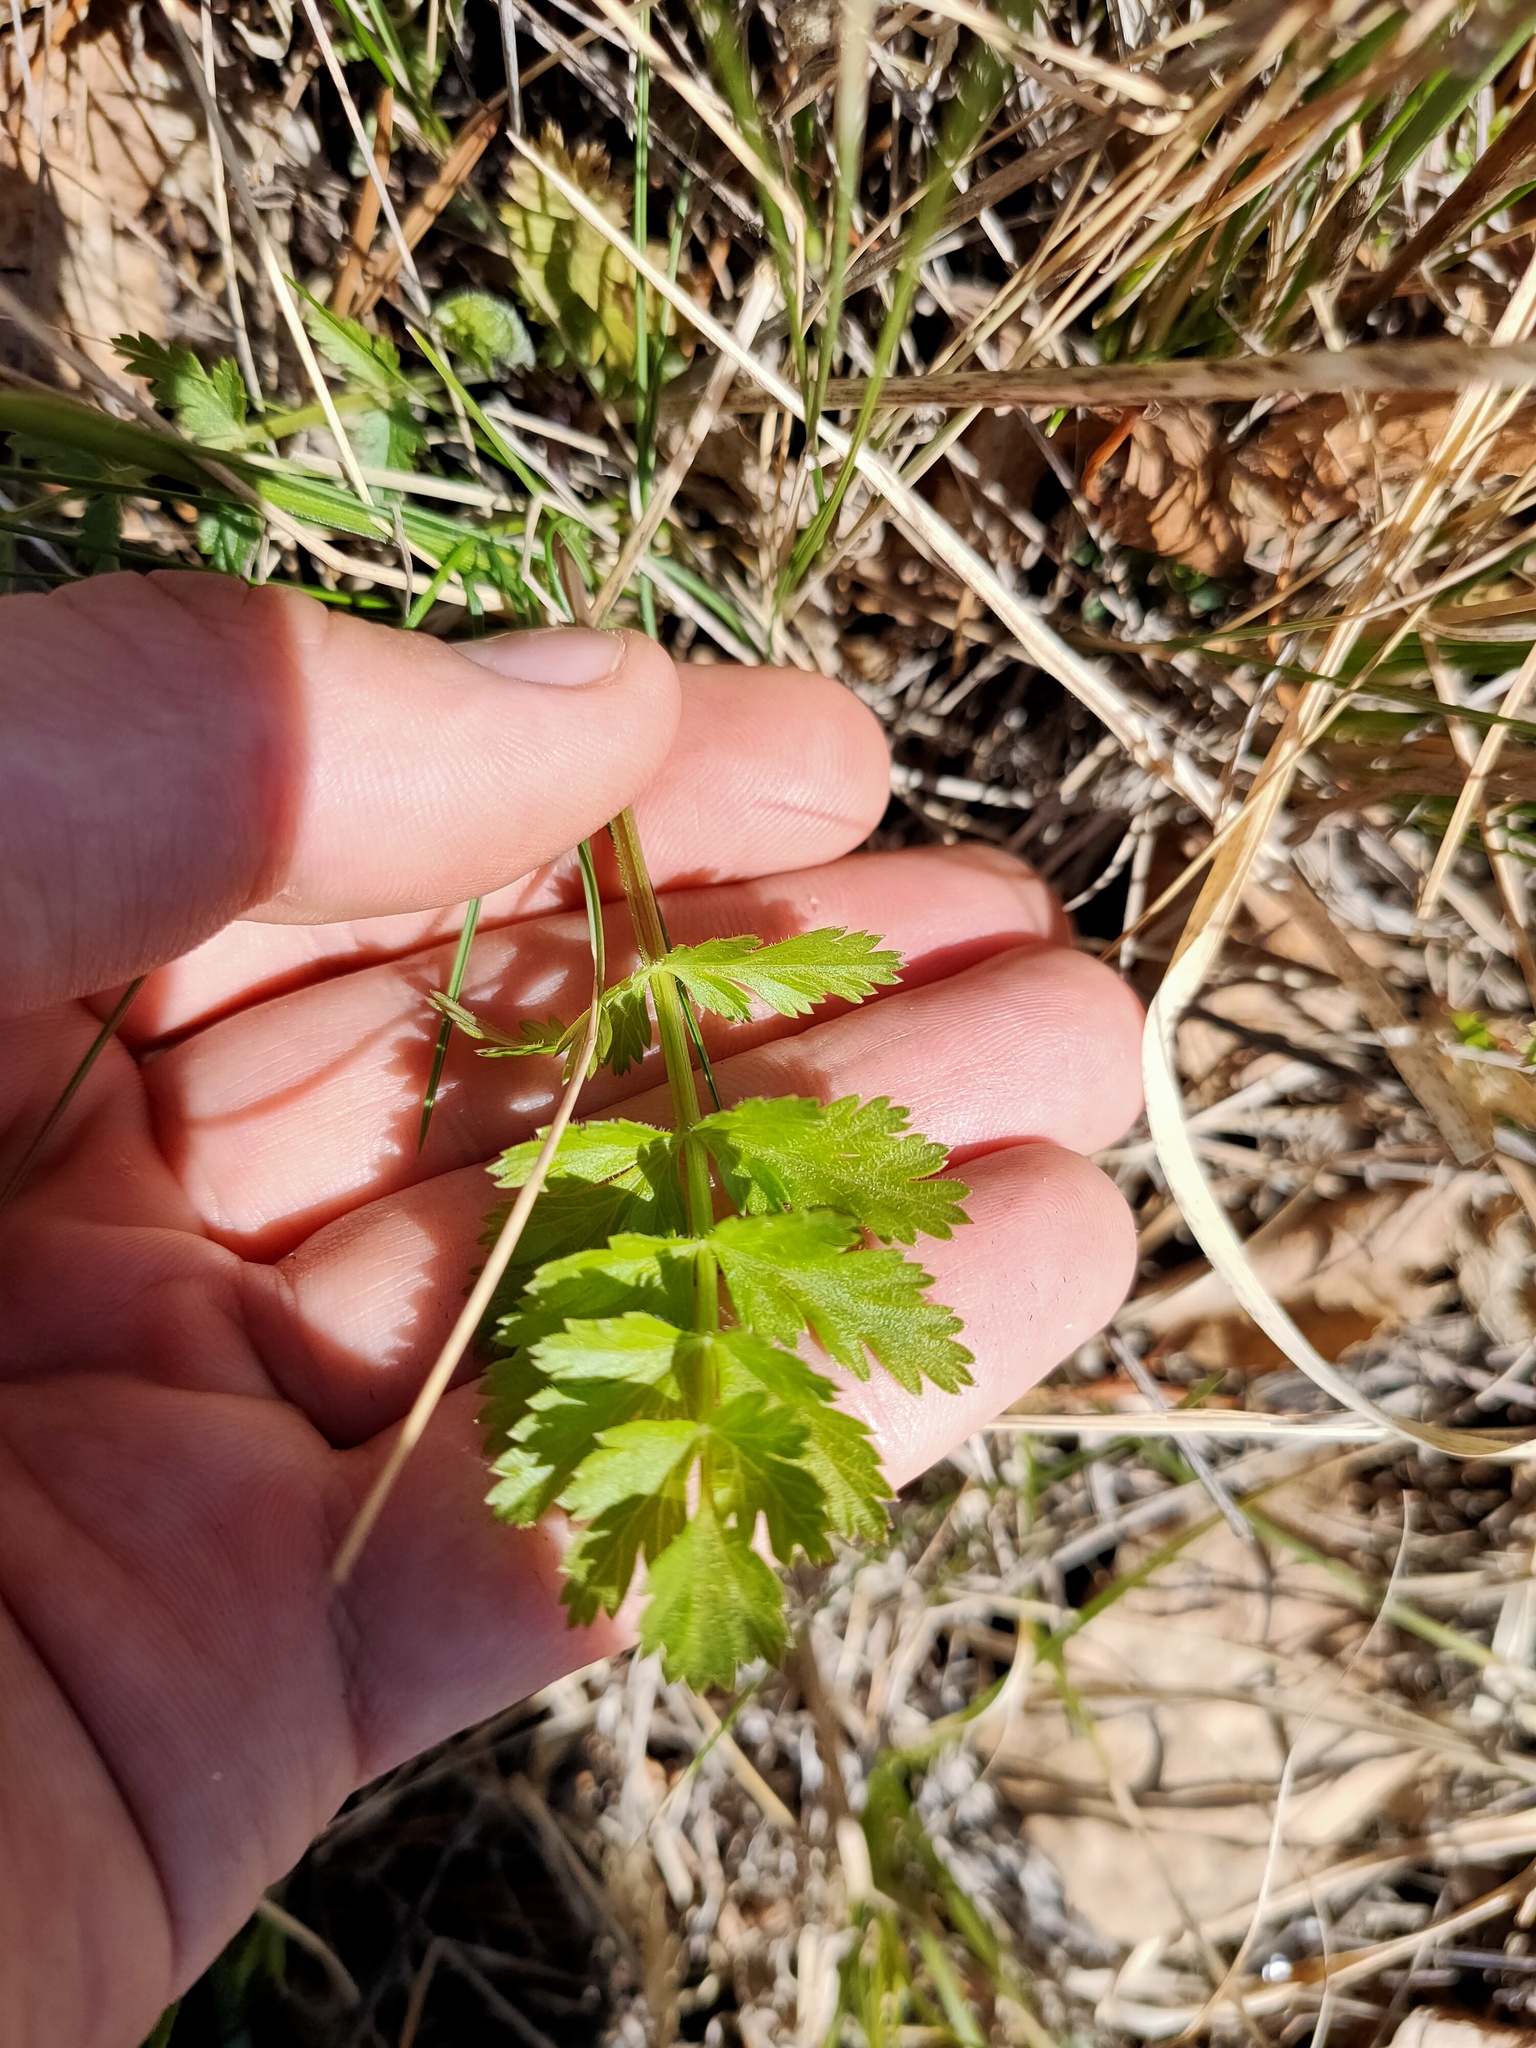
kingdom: Plantae
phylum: Tracheophyta
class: Magnoliopsida
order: Apiales
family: Apiaceae
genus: Pimpinella
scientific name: Pimpinella saxifraga
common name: Burnet-saxifrage
